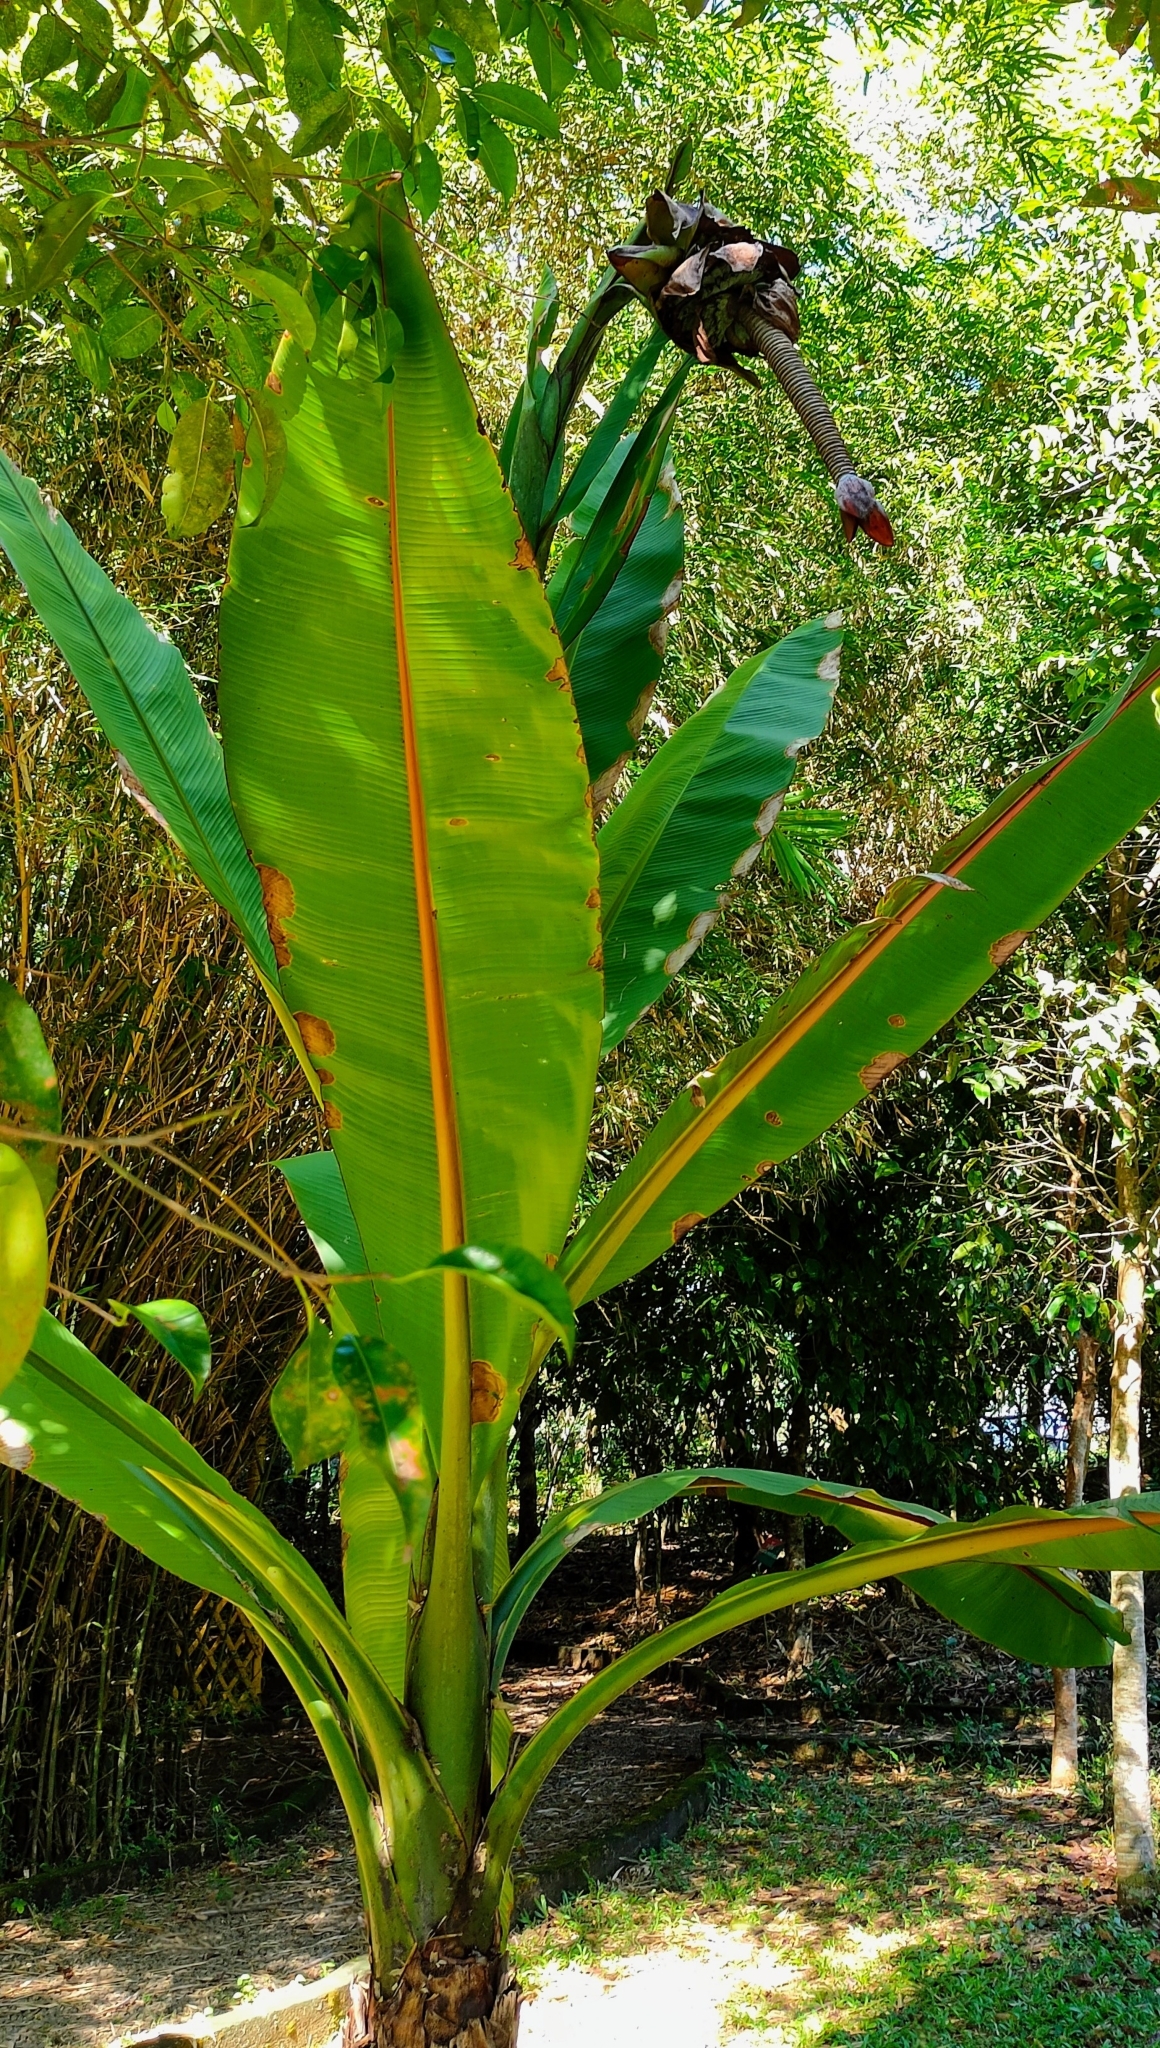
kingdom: Plantae
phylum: Tracheophyta
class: Liliopsida
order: Zingiberales
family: Musaceae
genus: Ensete
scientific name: Ensete superbum
